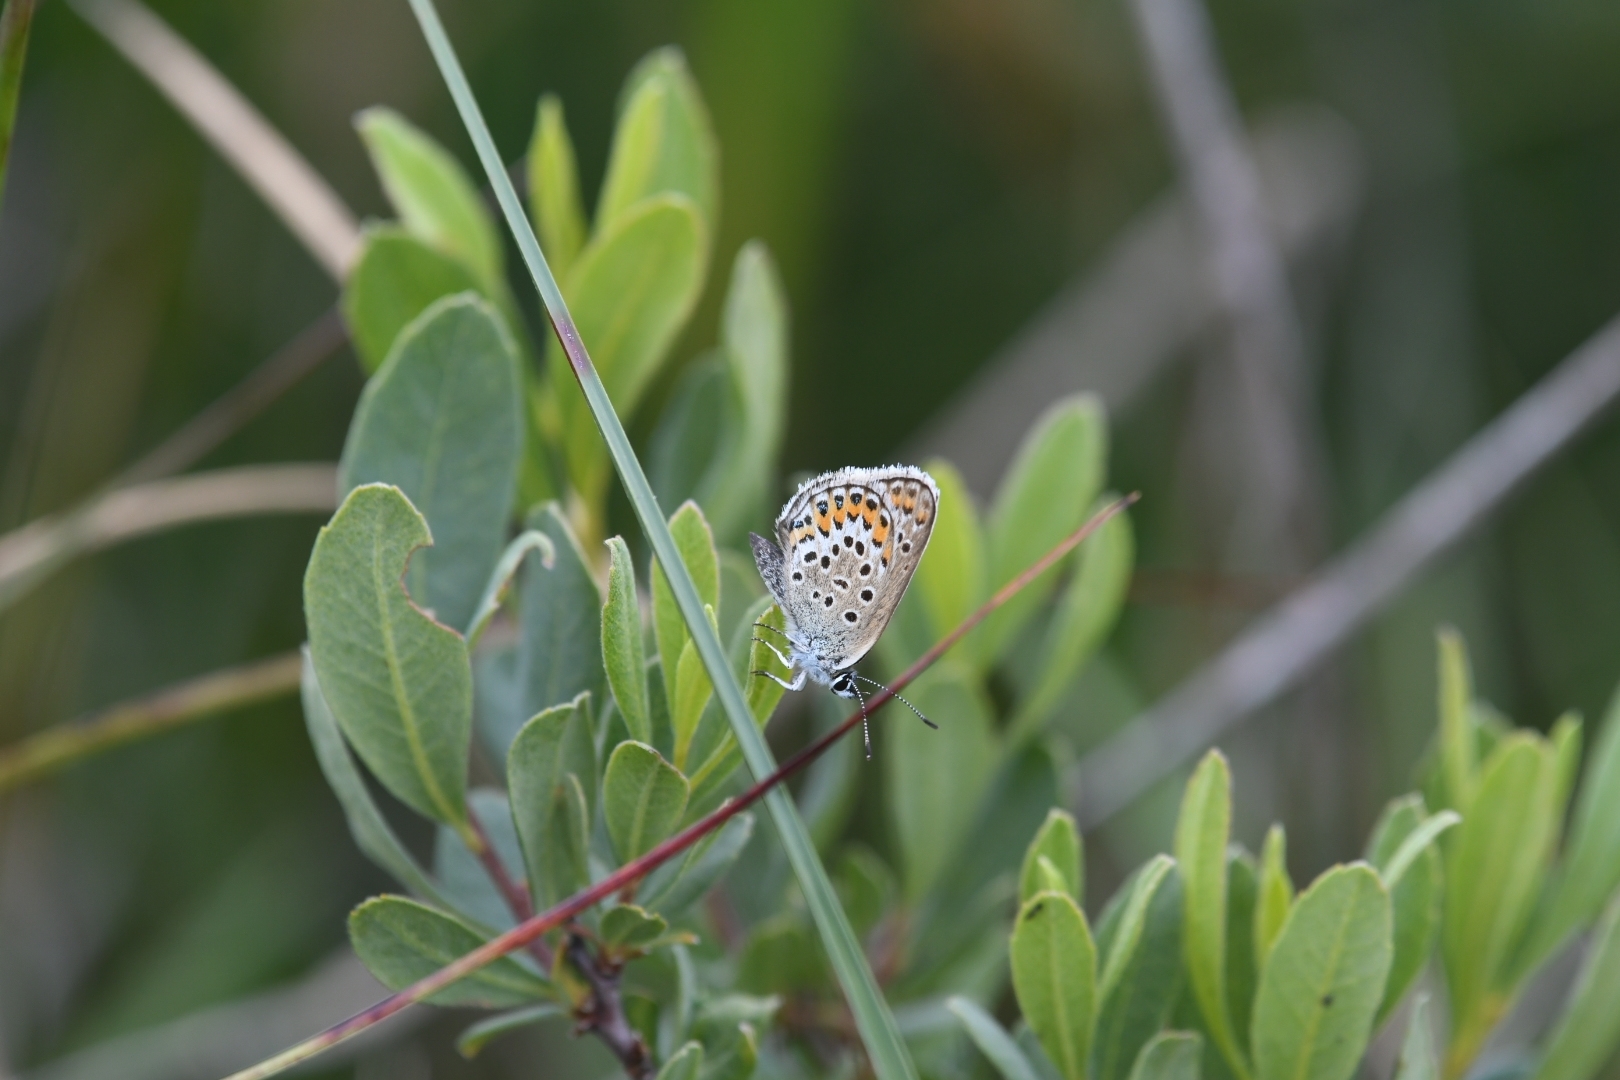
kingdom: Animalia
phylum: Arthropoda
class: Insecta
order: Lepidoptera
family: Lycaenidae
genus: Plebejus
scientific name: Plebejus argus
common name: Silver-studded blue
